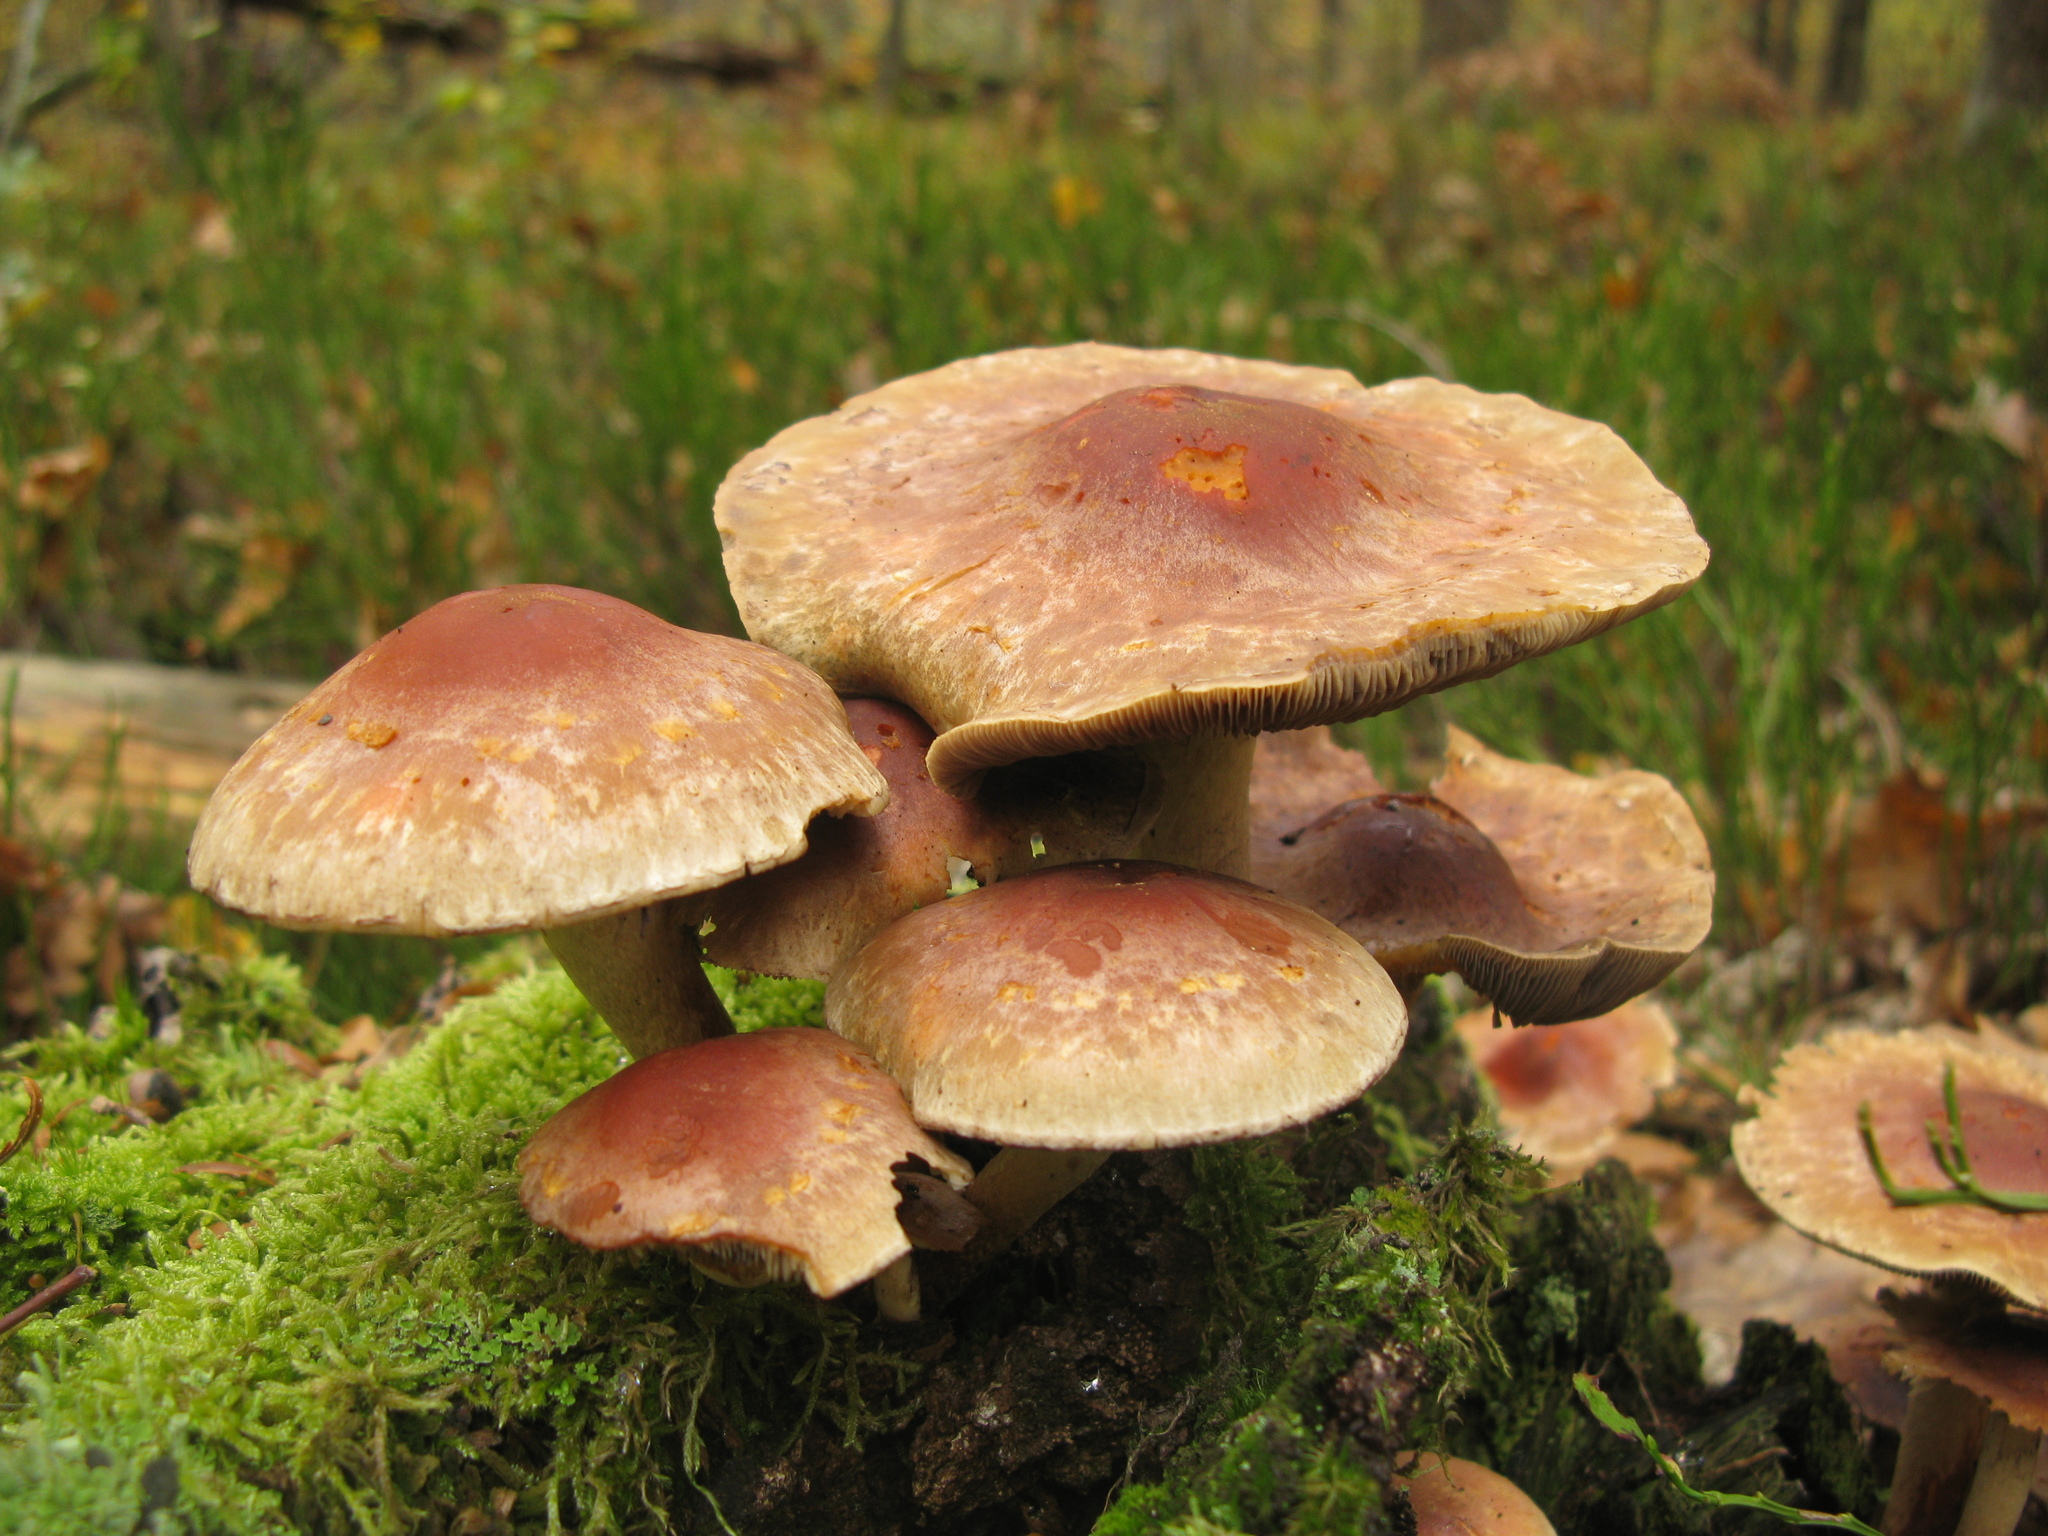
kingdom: Fungi
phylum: Basidiomycota
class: Agaricomycetes
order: Agaricales
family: Strophariaceae
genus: Hypholoma
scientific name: Hypholoma lateritium
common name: Brick caps
